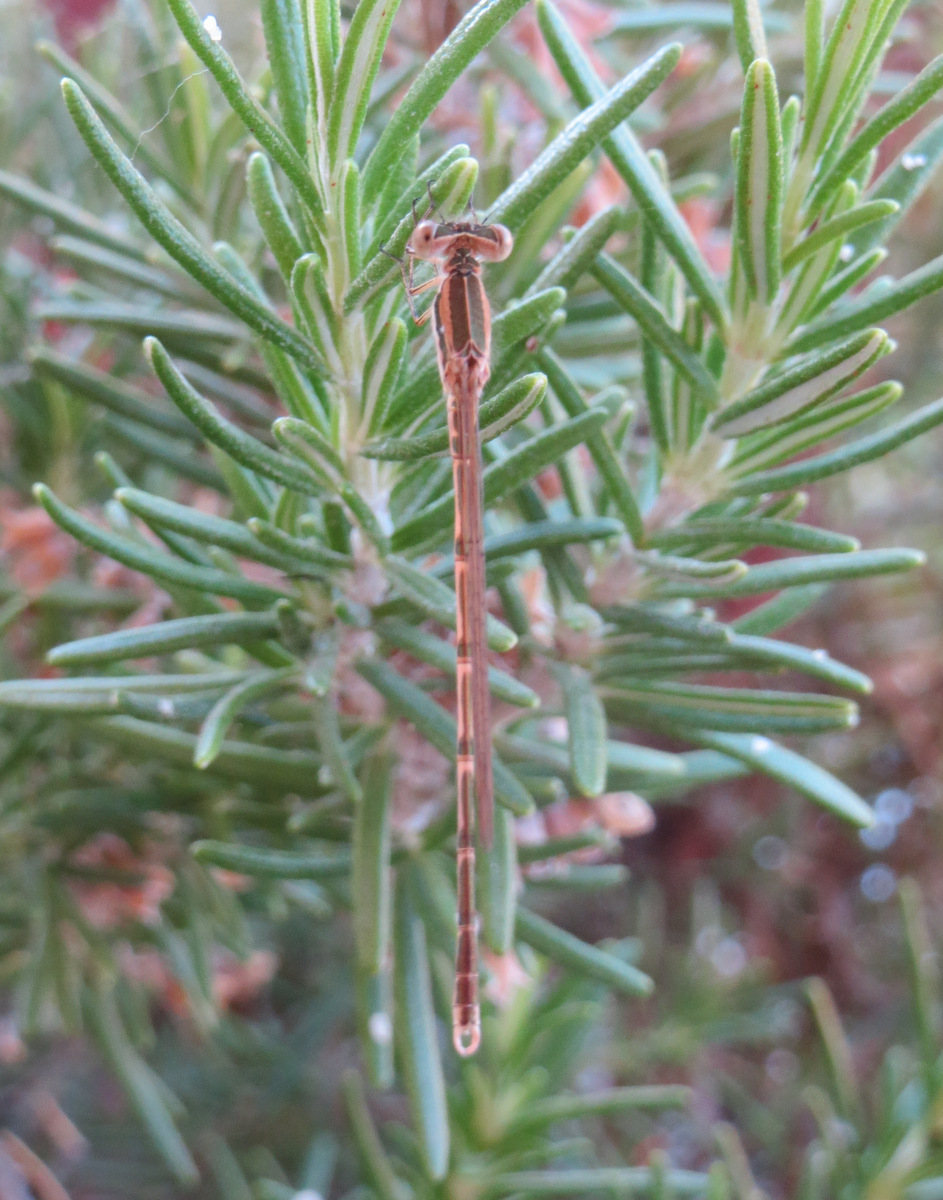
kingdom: Animalia
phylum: Arthropoda
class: Insecta
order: Odonata
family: Lestidae
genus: Sympecma
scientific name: Sympecma fusca
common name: Common winter damsel
